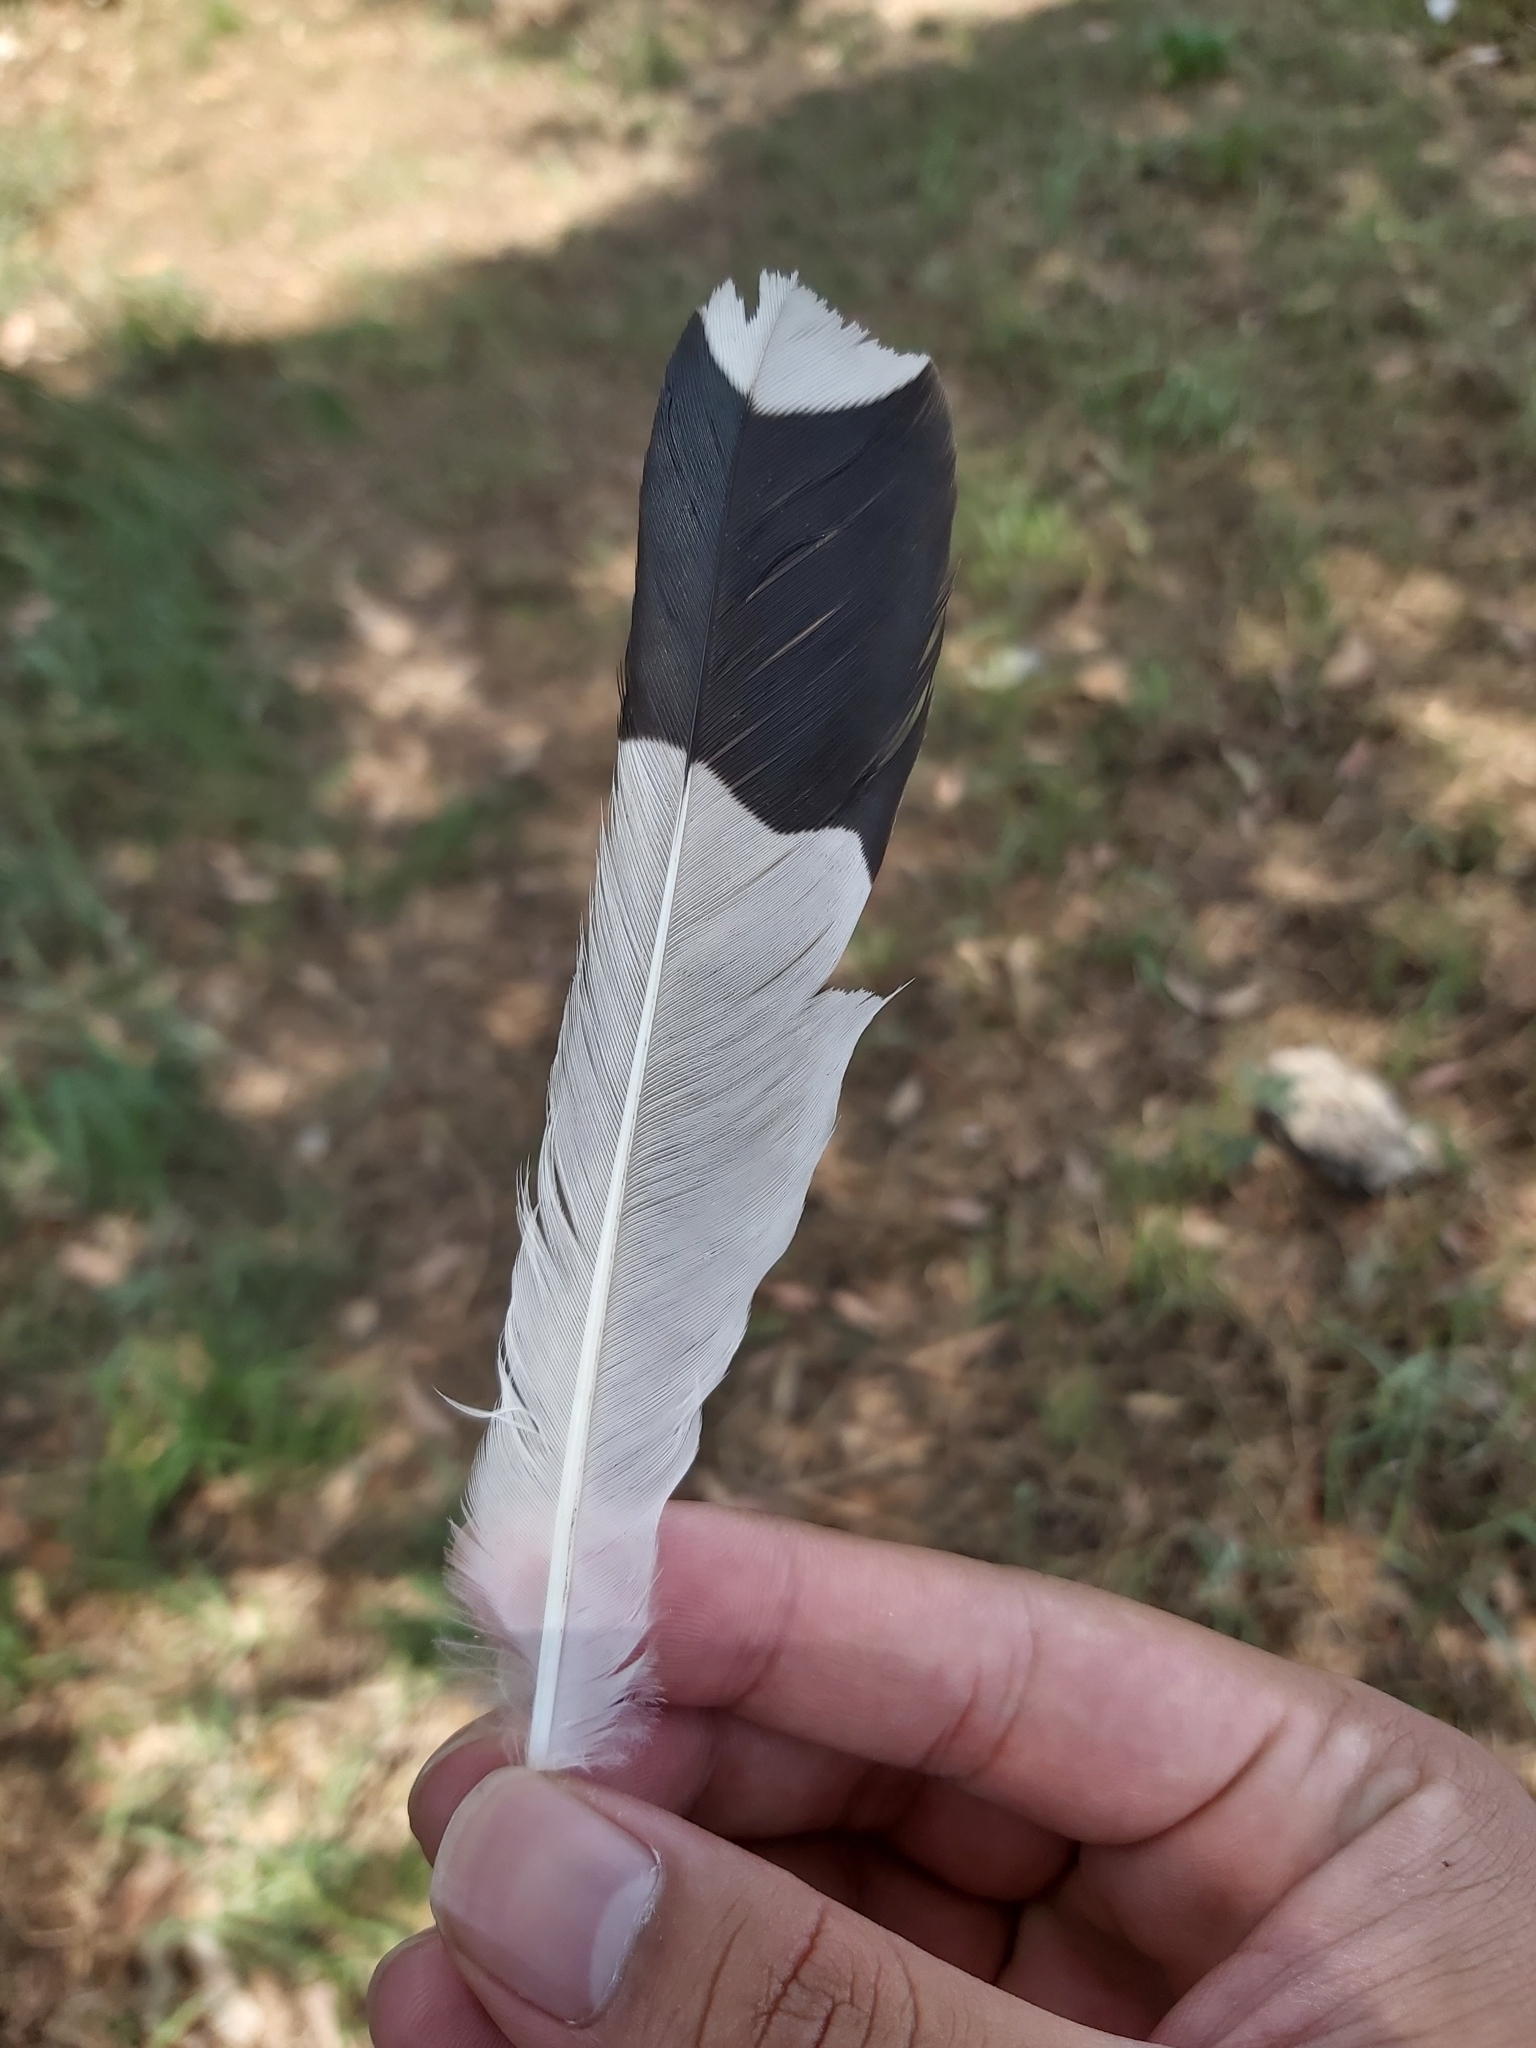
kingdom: Animalia
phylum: Chordata
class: Aves
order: Passeriformes
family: Monarchidae
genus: Grallina
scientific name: Grallina cyanoleuca
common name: Magpie-lark
